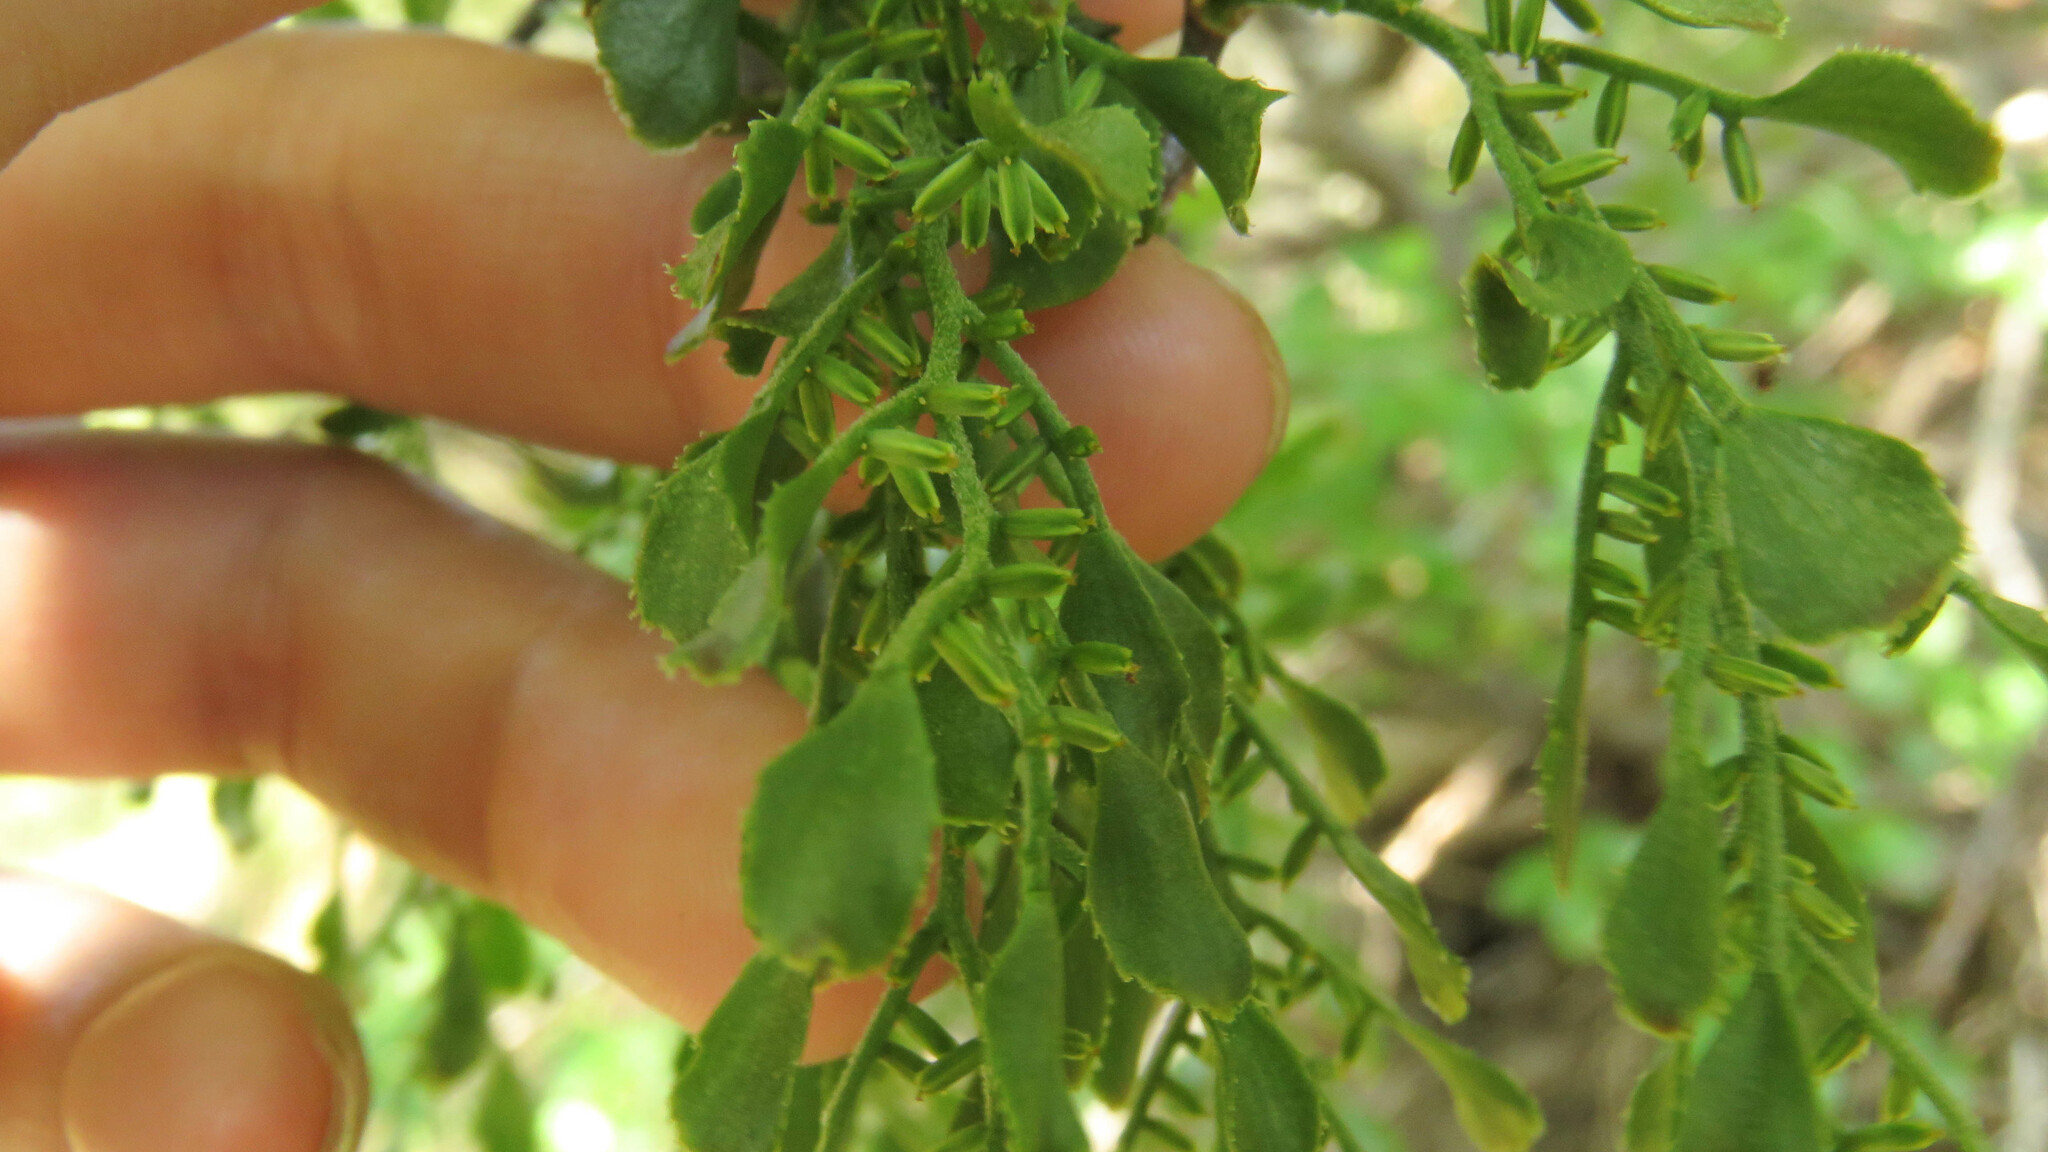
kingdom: Plantae
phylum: Tracheophyta
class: Magnoliopsida
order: Santalales
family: Misodendraceae
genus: Misodendrum
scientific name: Misodendrum quadriflorum
